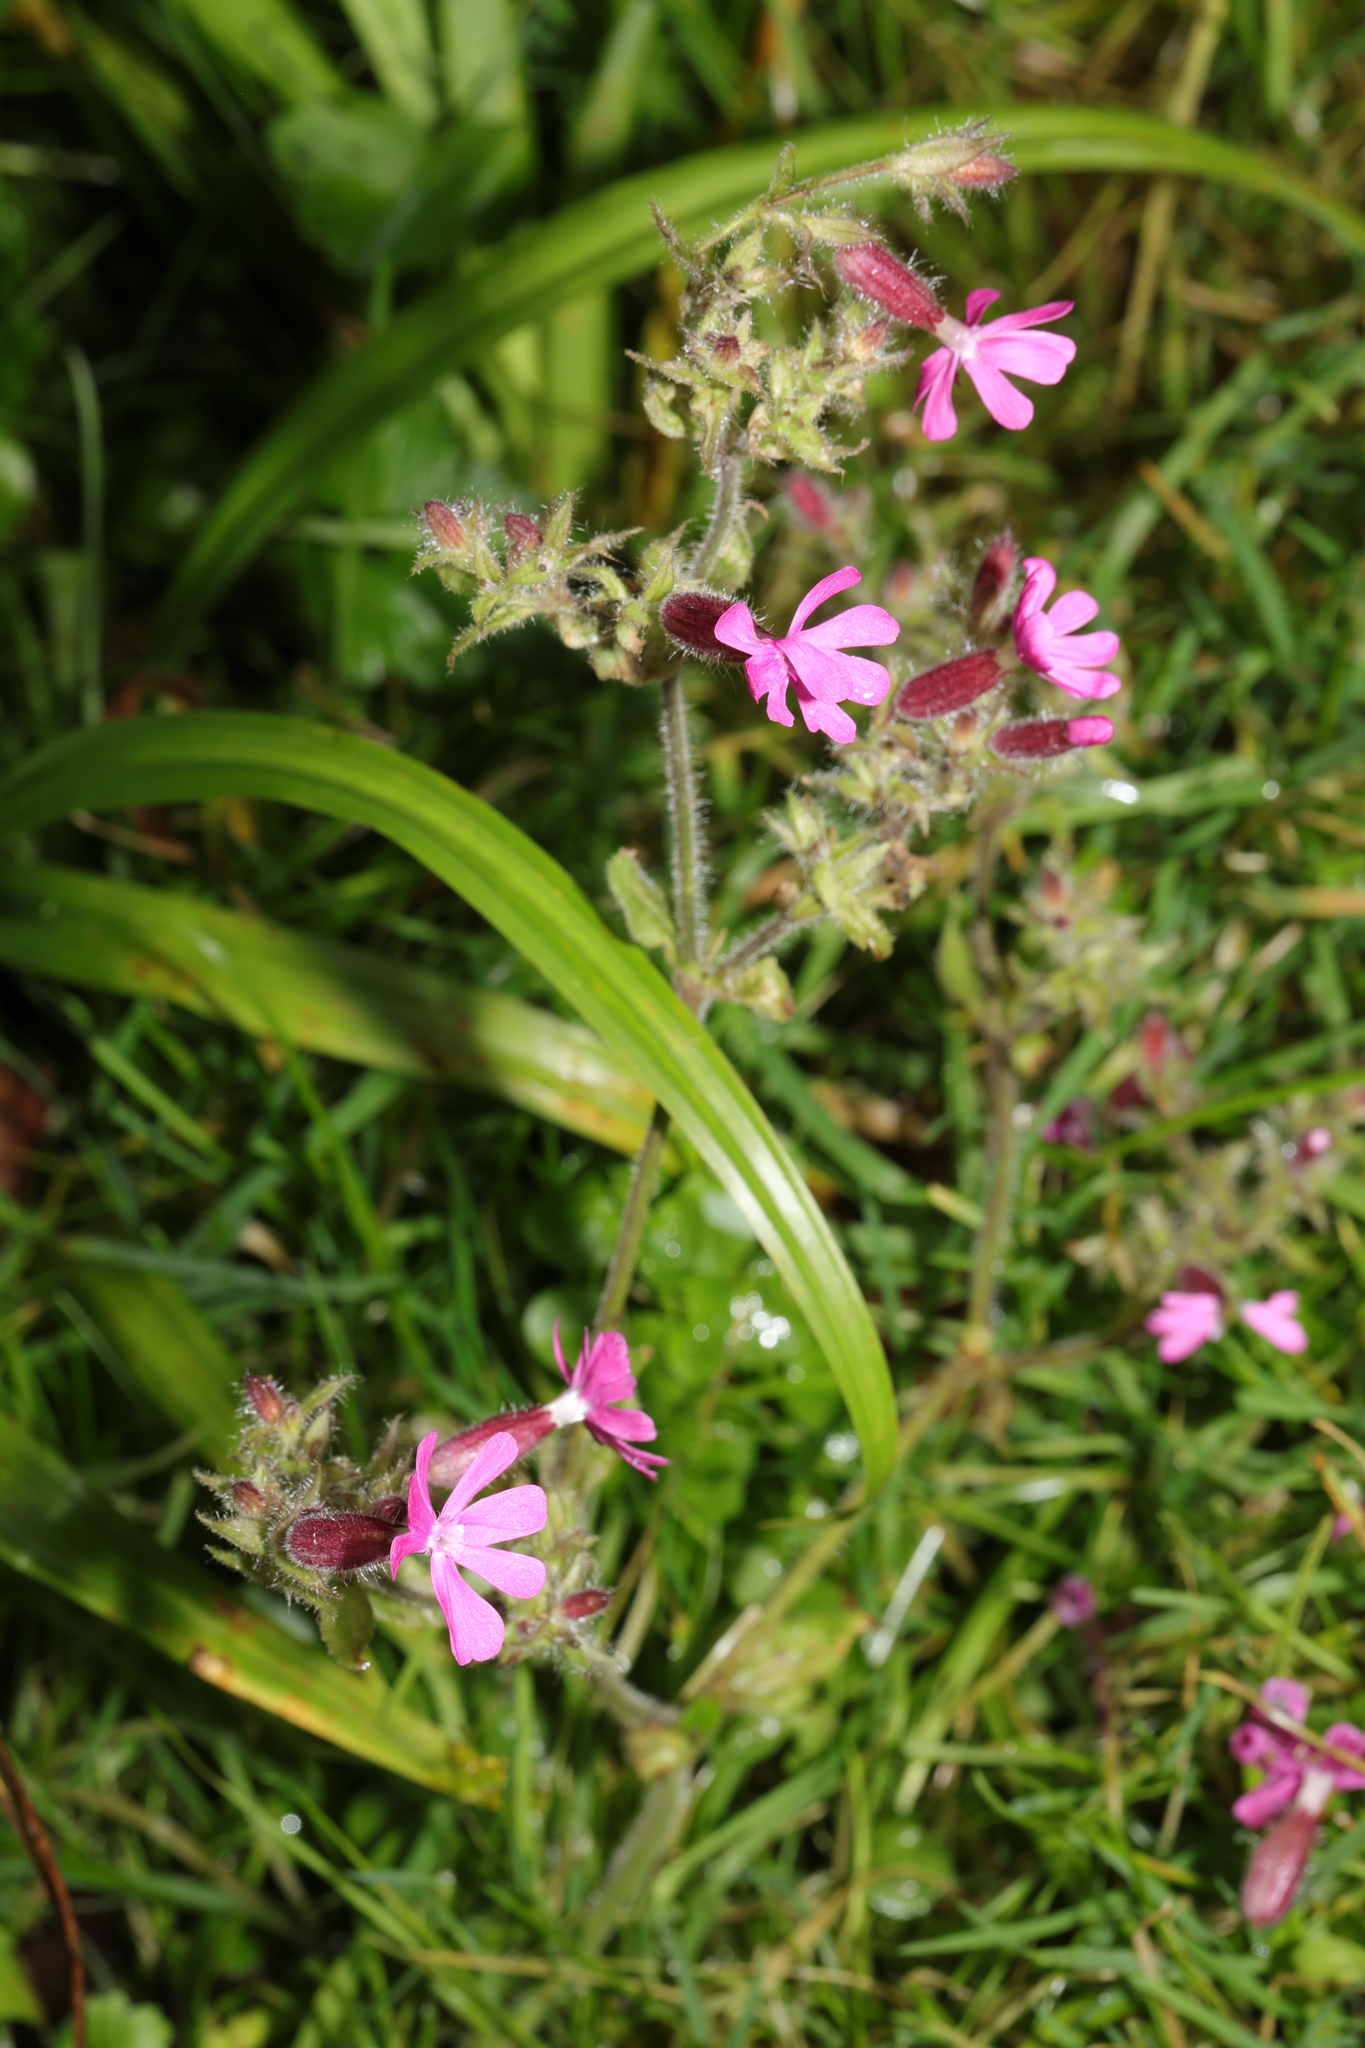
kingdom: Plantae
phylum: Tracheophyta
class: Magnoliopsida
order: Caryophyllales
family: Caryophyllaceae
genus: Silene
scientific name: Silene dioica
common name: Red campion
